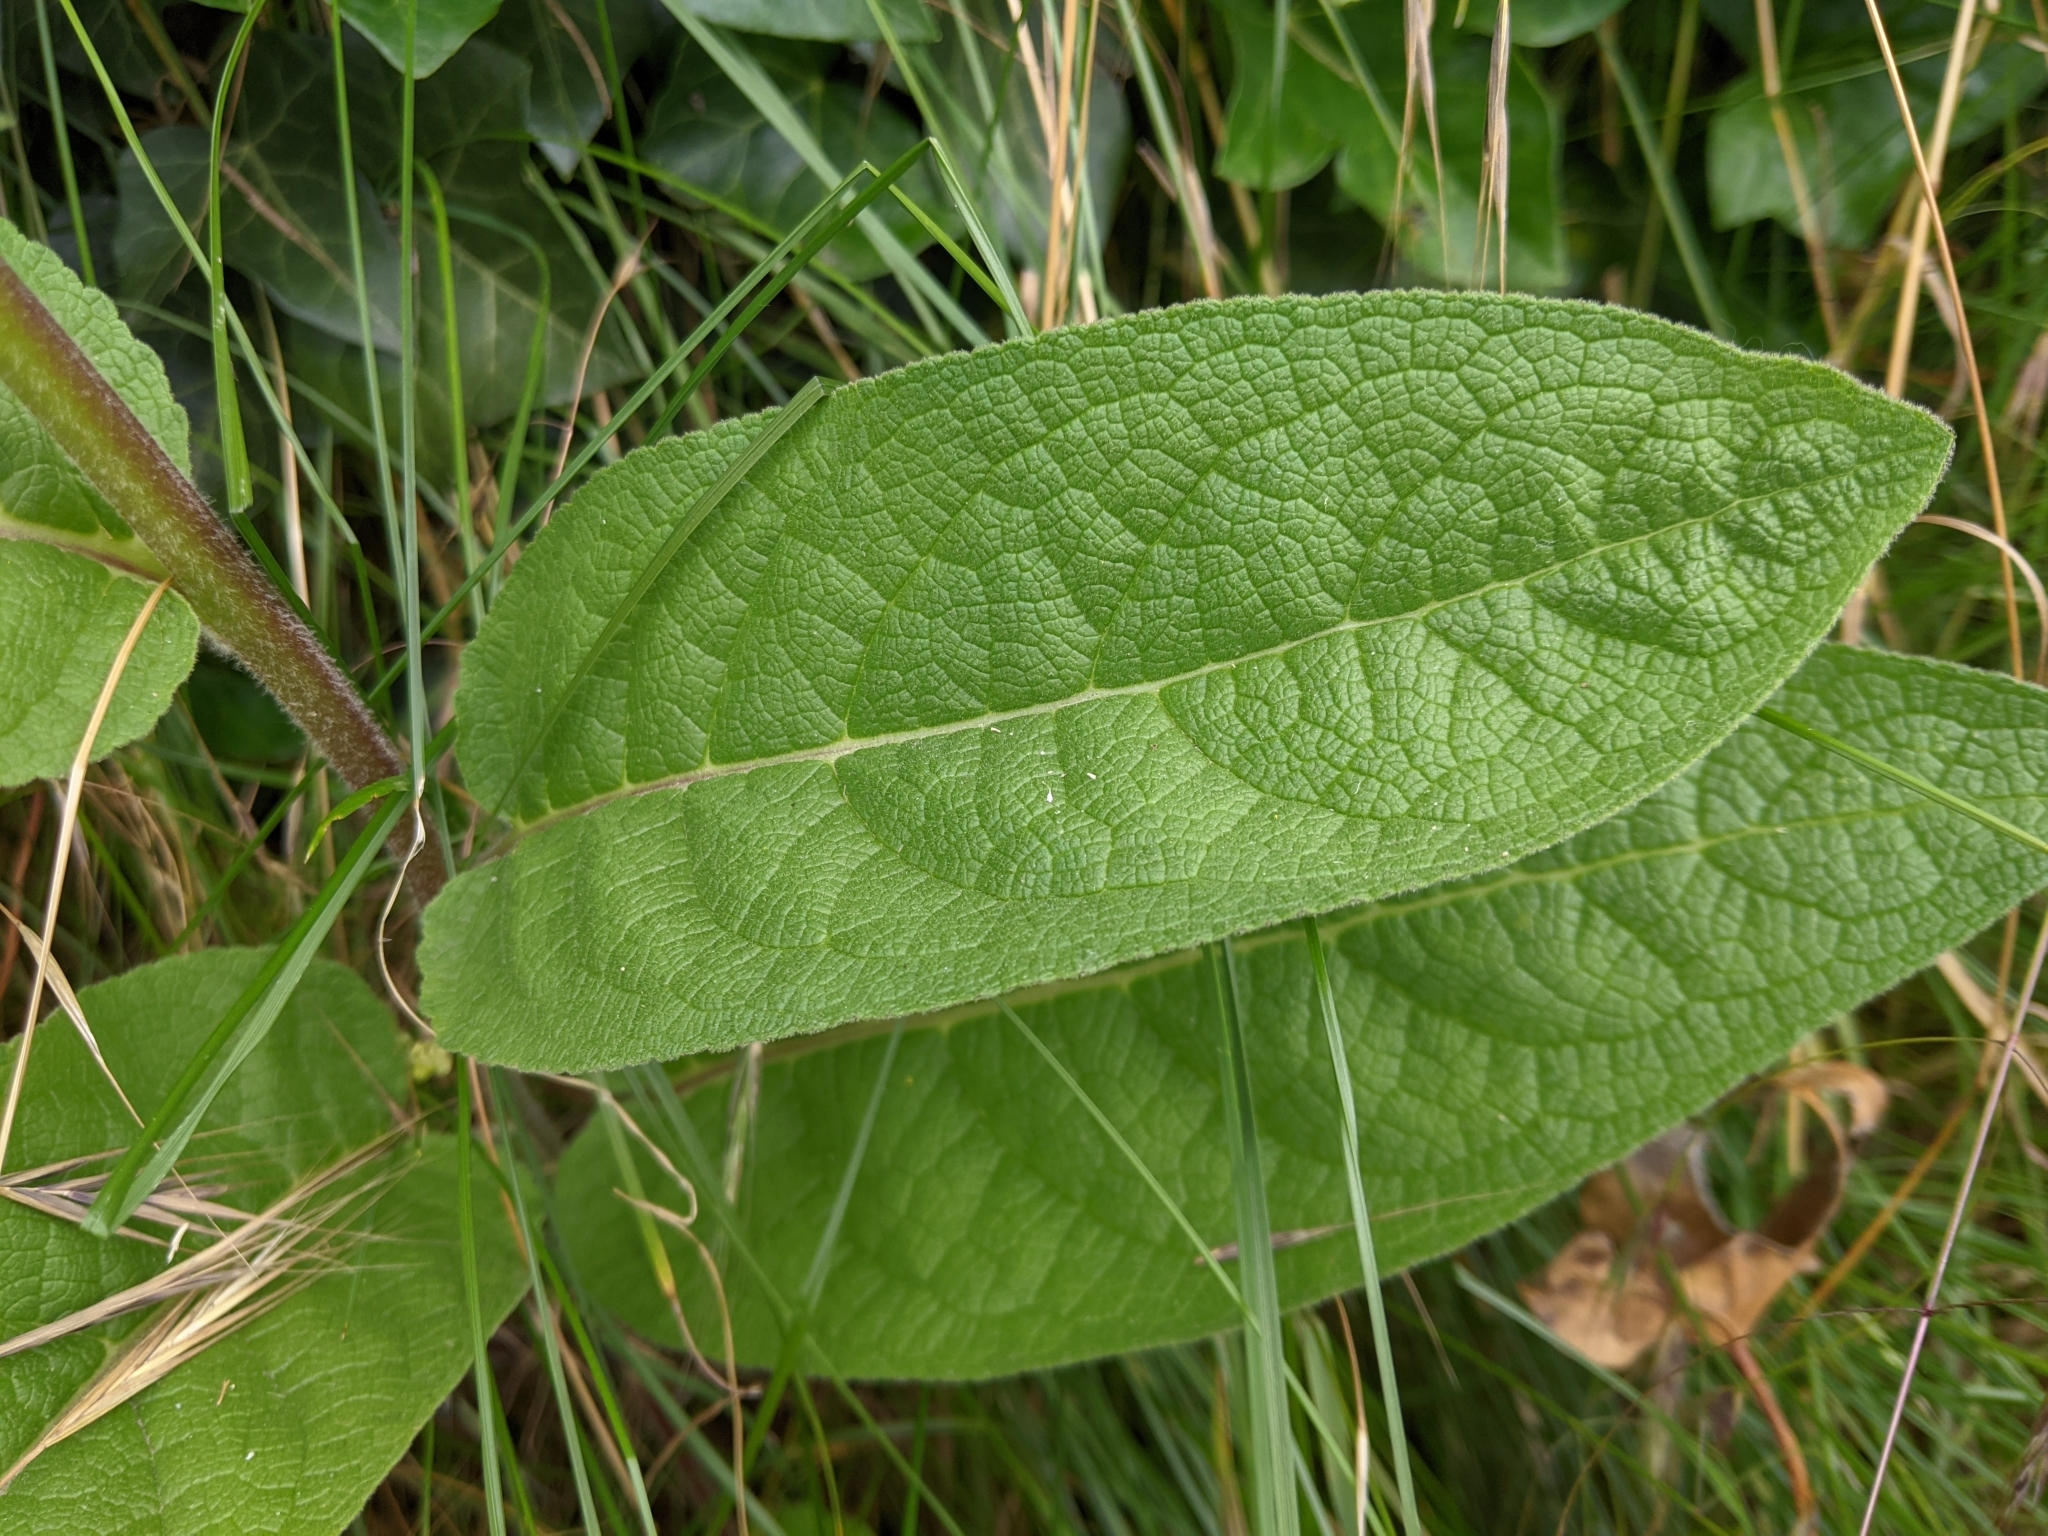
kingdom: Plantae
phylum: Tracheophyta
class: Magnoliopsida
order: Lamiales
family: Scrophulariaceae
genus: Verbascum
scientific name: Verbascum nigrum
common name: Dark mullein
